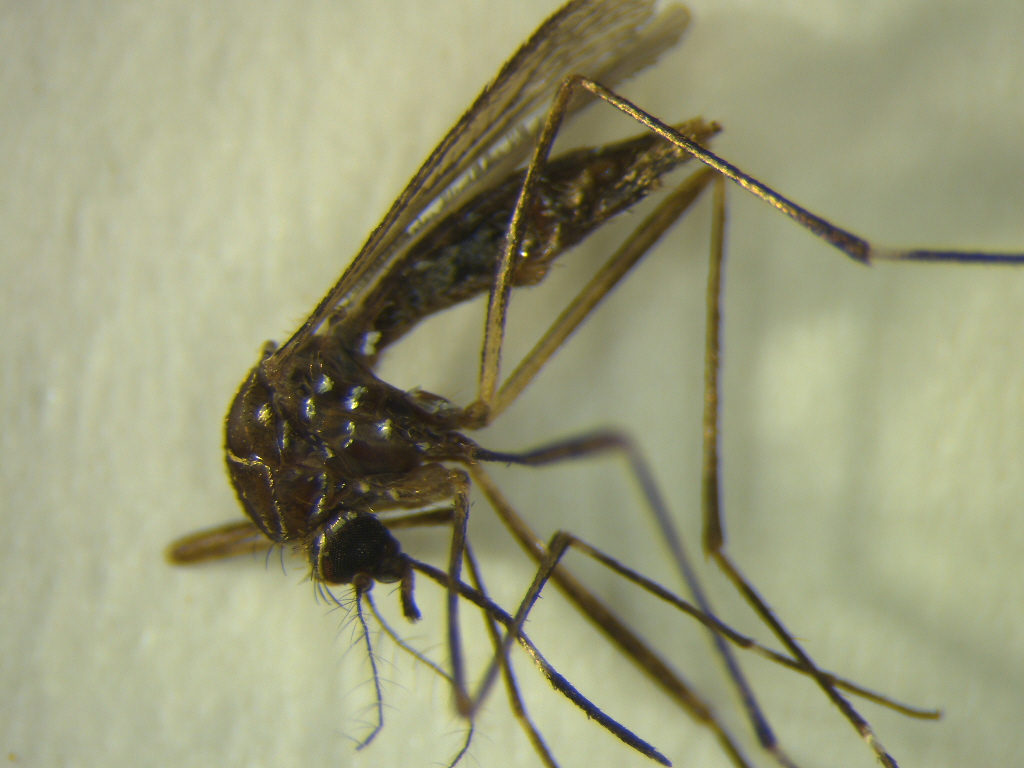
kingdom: Animalia
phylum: Arthropoda
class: Insecta
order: Diptera
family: Culicidae
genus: Aedes
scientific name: Aedes notoscriptus
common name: Australian backyard mosquito
